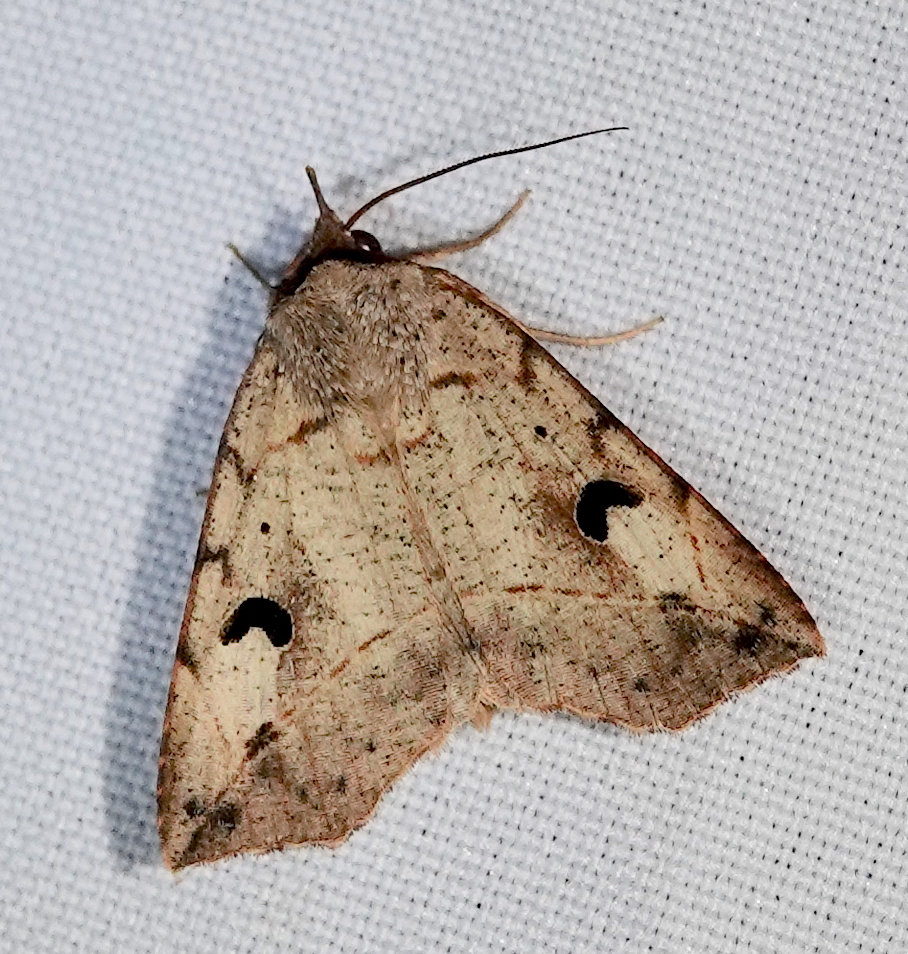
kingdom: Animalia
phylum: Arthropoda
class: Insecta
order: Lepidoptera
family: Erebidae
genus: Goniocarsia
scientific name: Goniocarsia electrica
